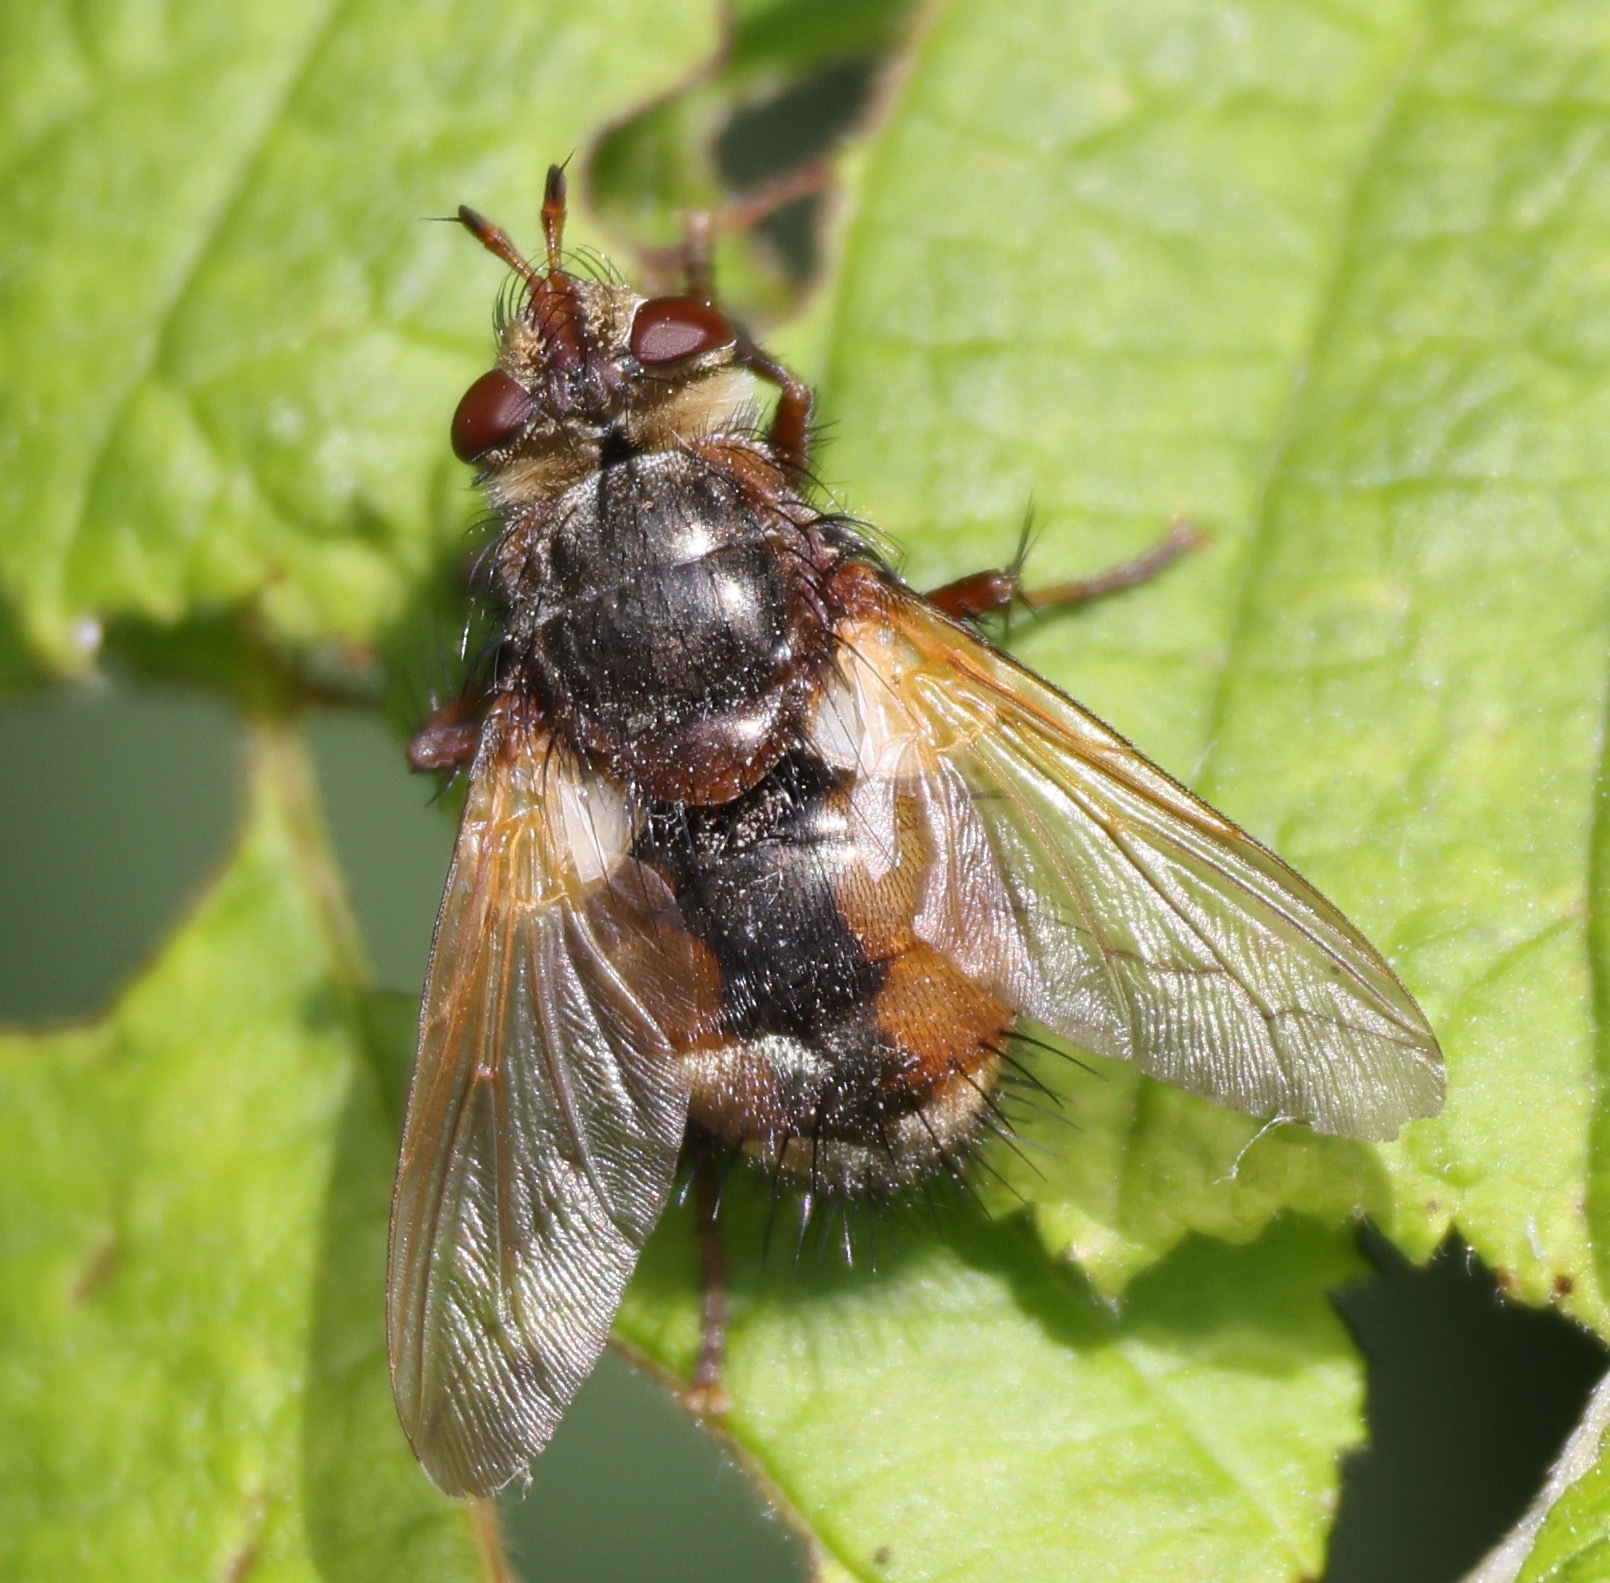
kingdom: Animalia
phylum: Arthropoda
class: Insecta
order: Diptera
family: Tachinidae
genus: Tachina
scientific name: Tachina fera
